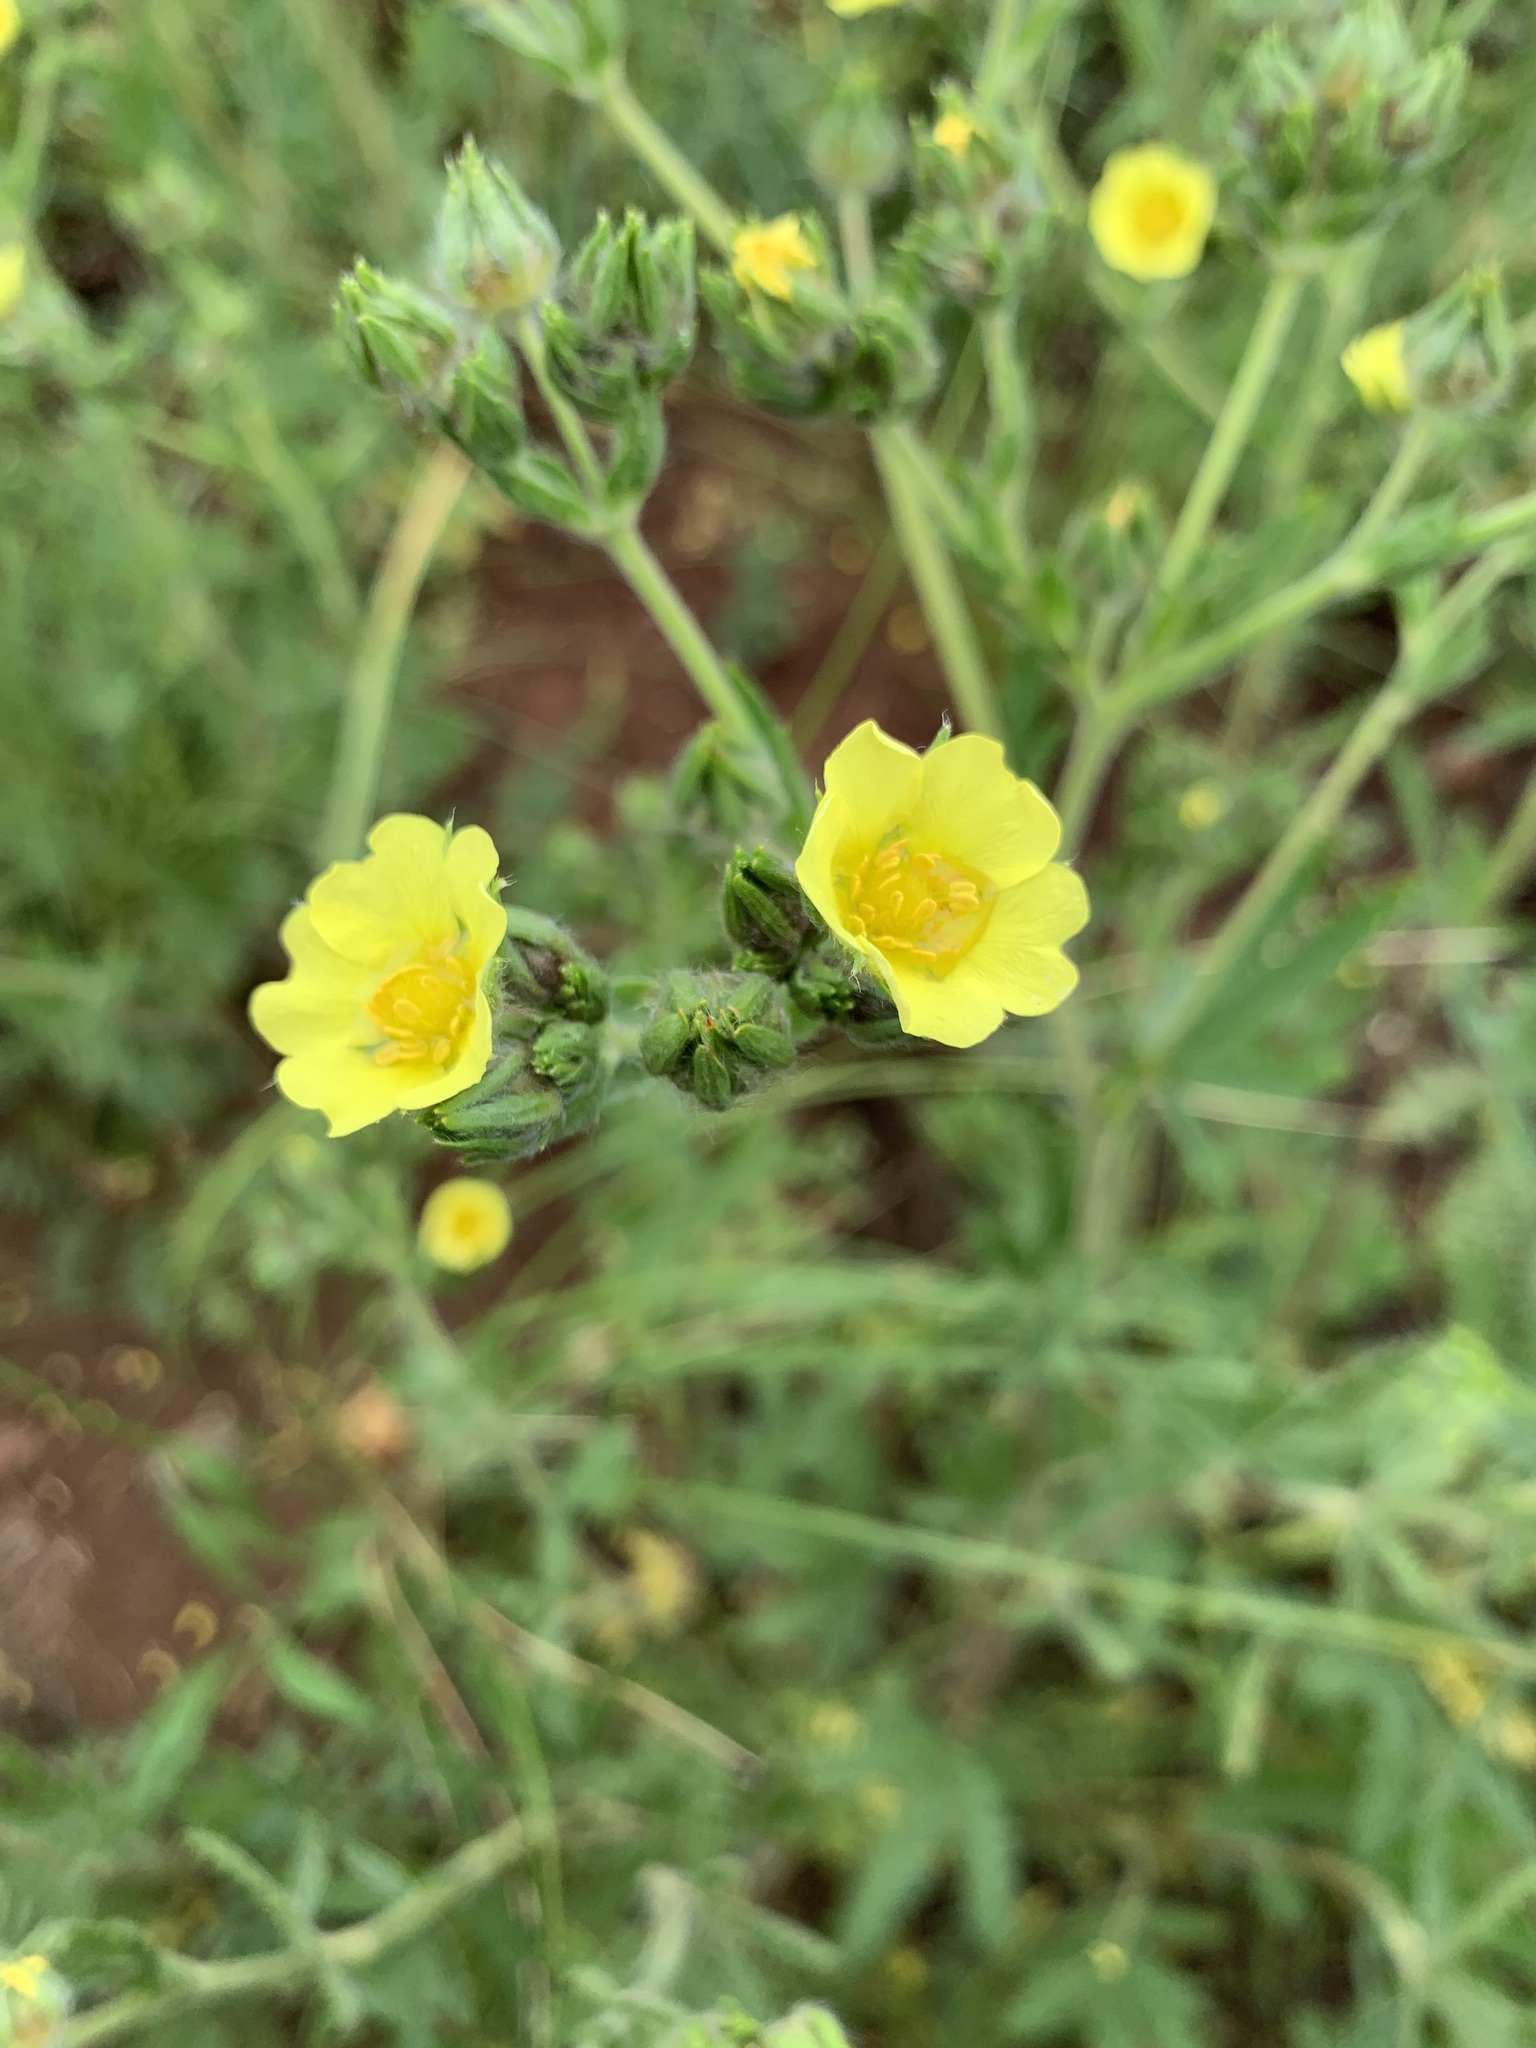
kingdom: Plantae
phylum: Tracheophyta
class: Magnoliopsida
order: Rosales
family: Rosaceae
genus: Potentilla
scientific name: Potentilla
